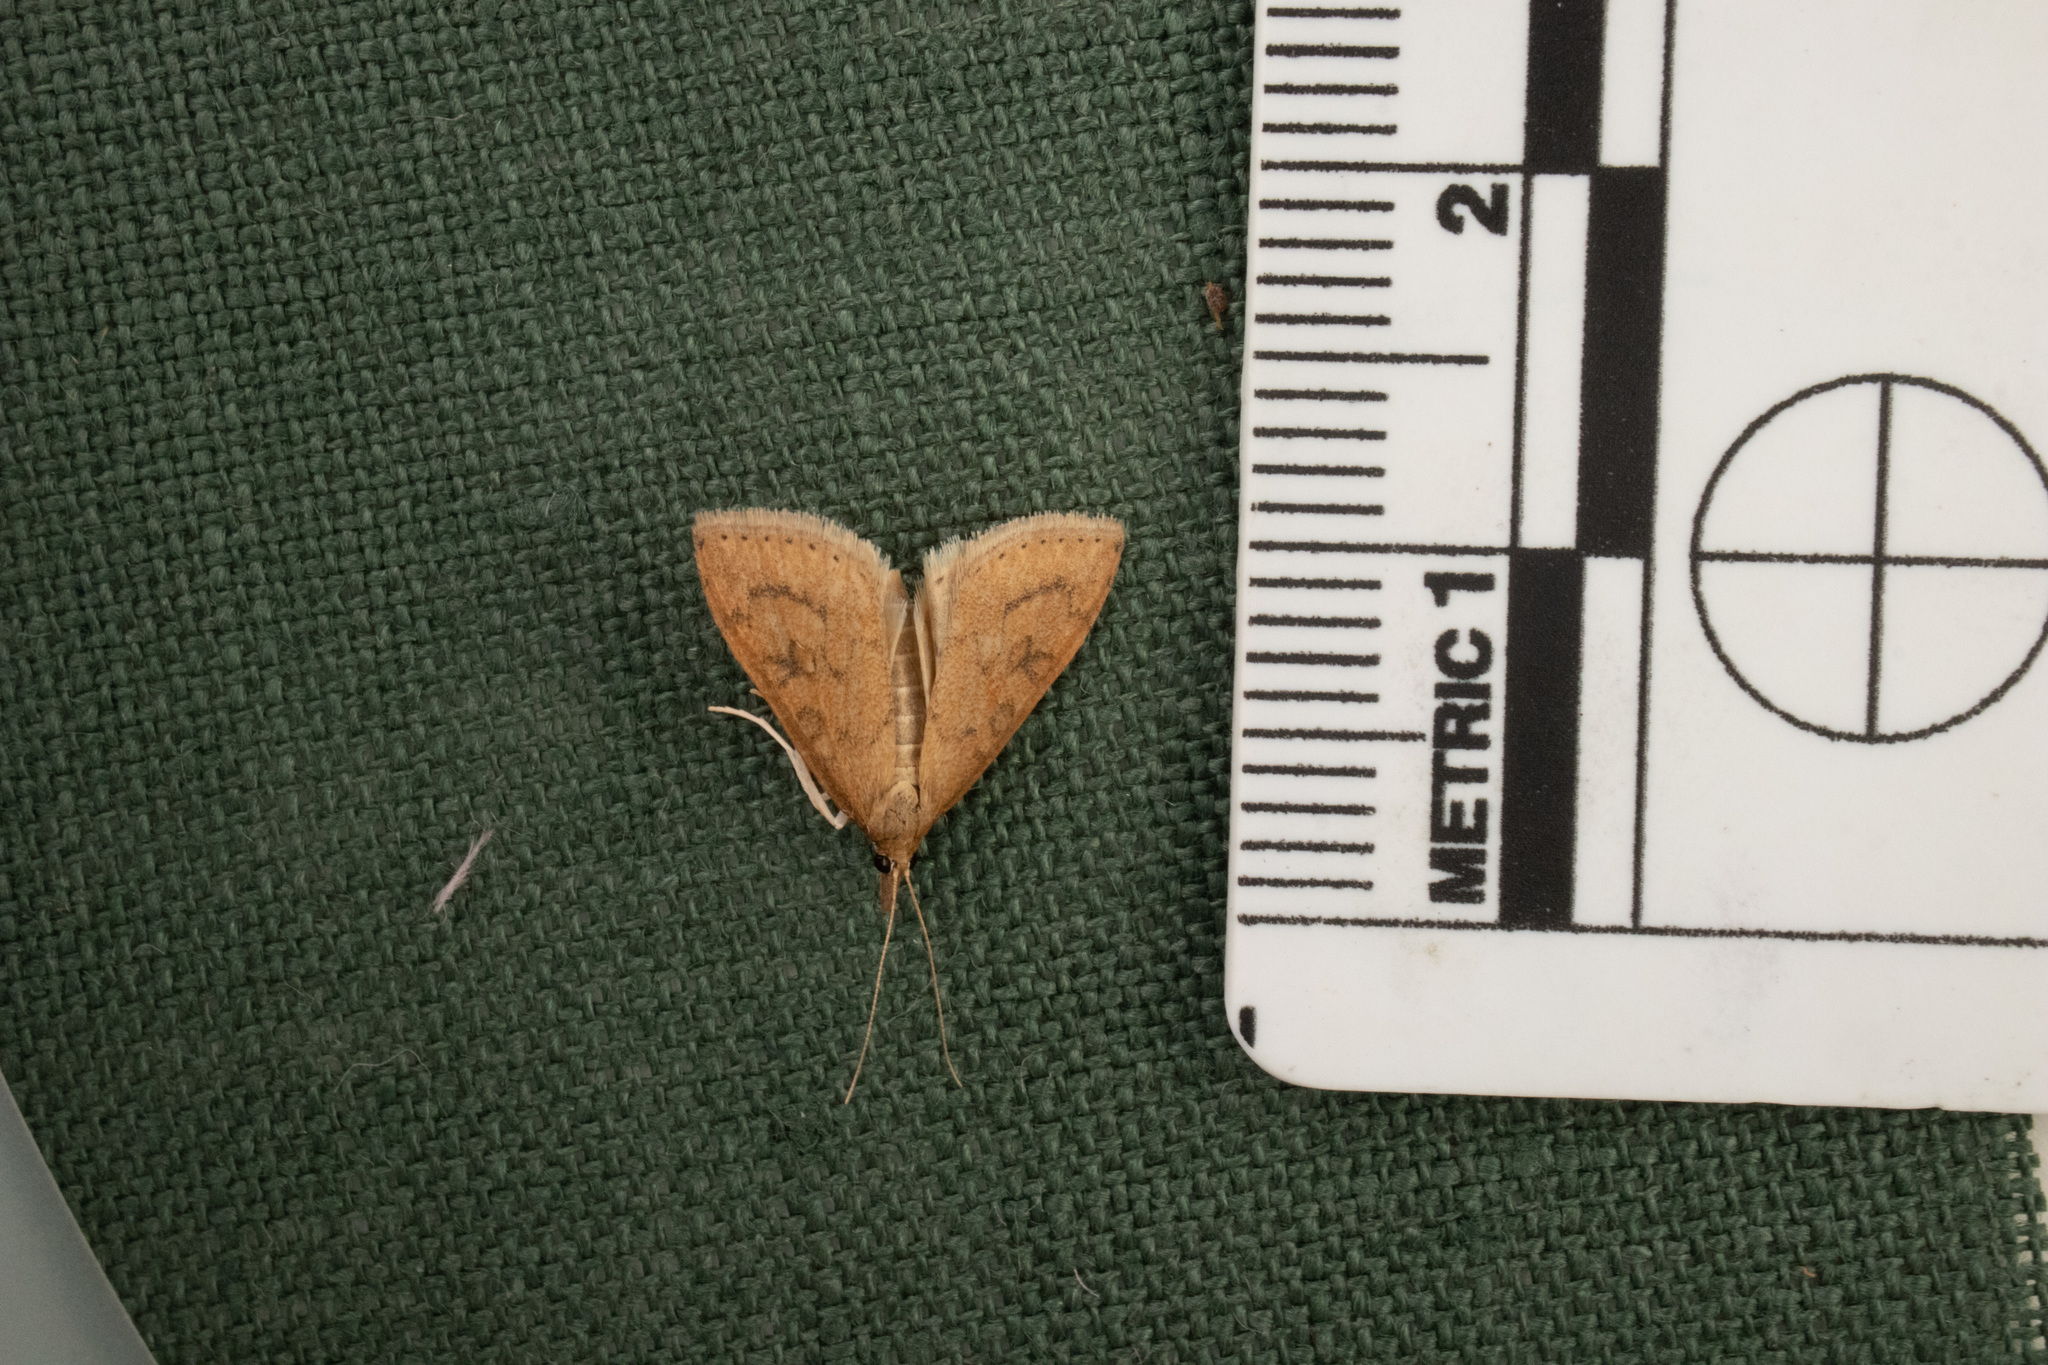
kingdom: Animalia
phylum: Arthropoda
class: Insecta
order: Lepidoptera
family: Crambidae
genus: Udea
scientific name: Udea rubigalis
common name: Celery leaftier moth
